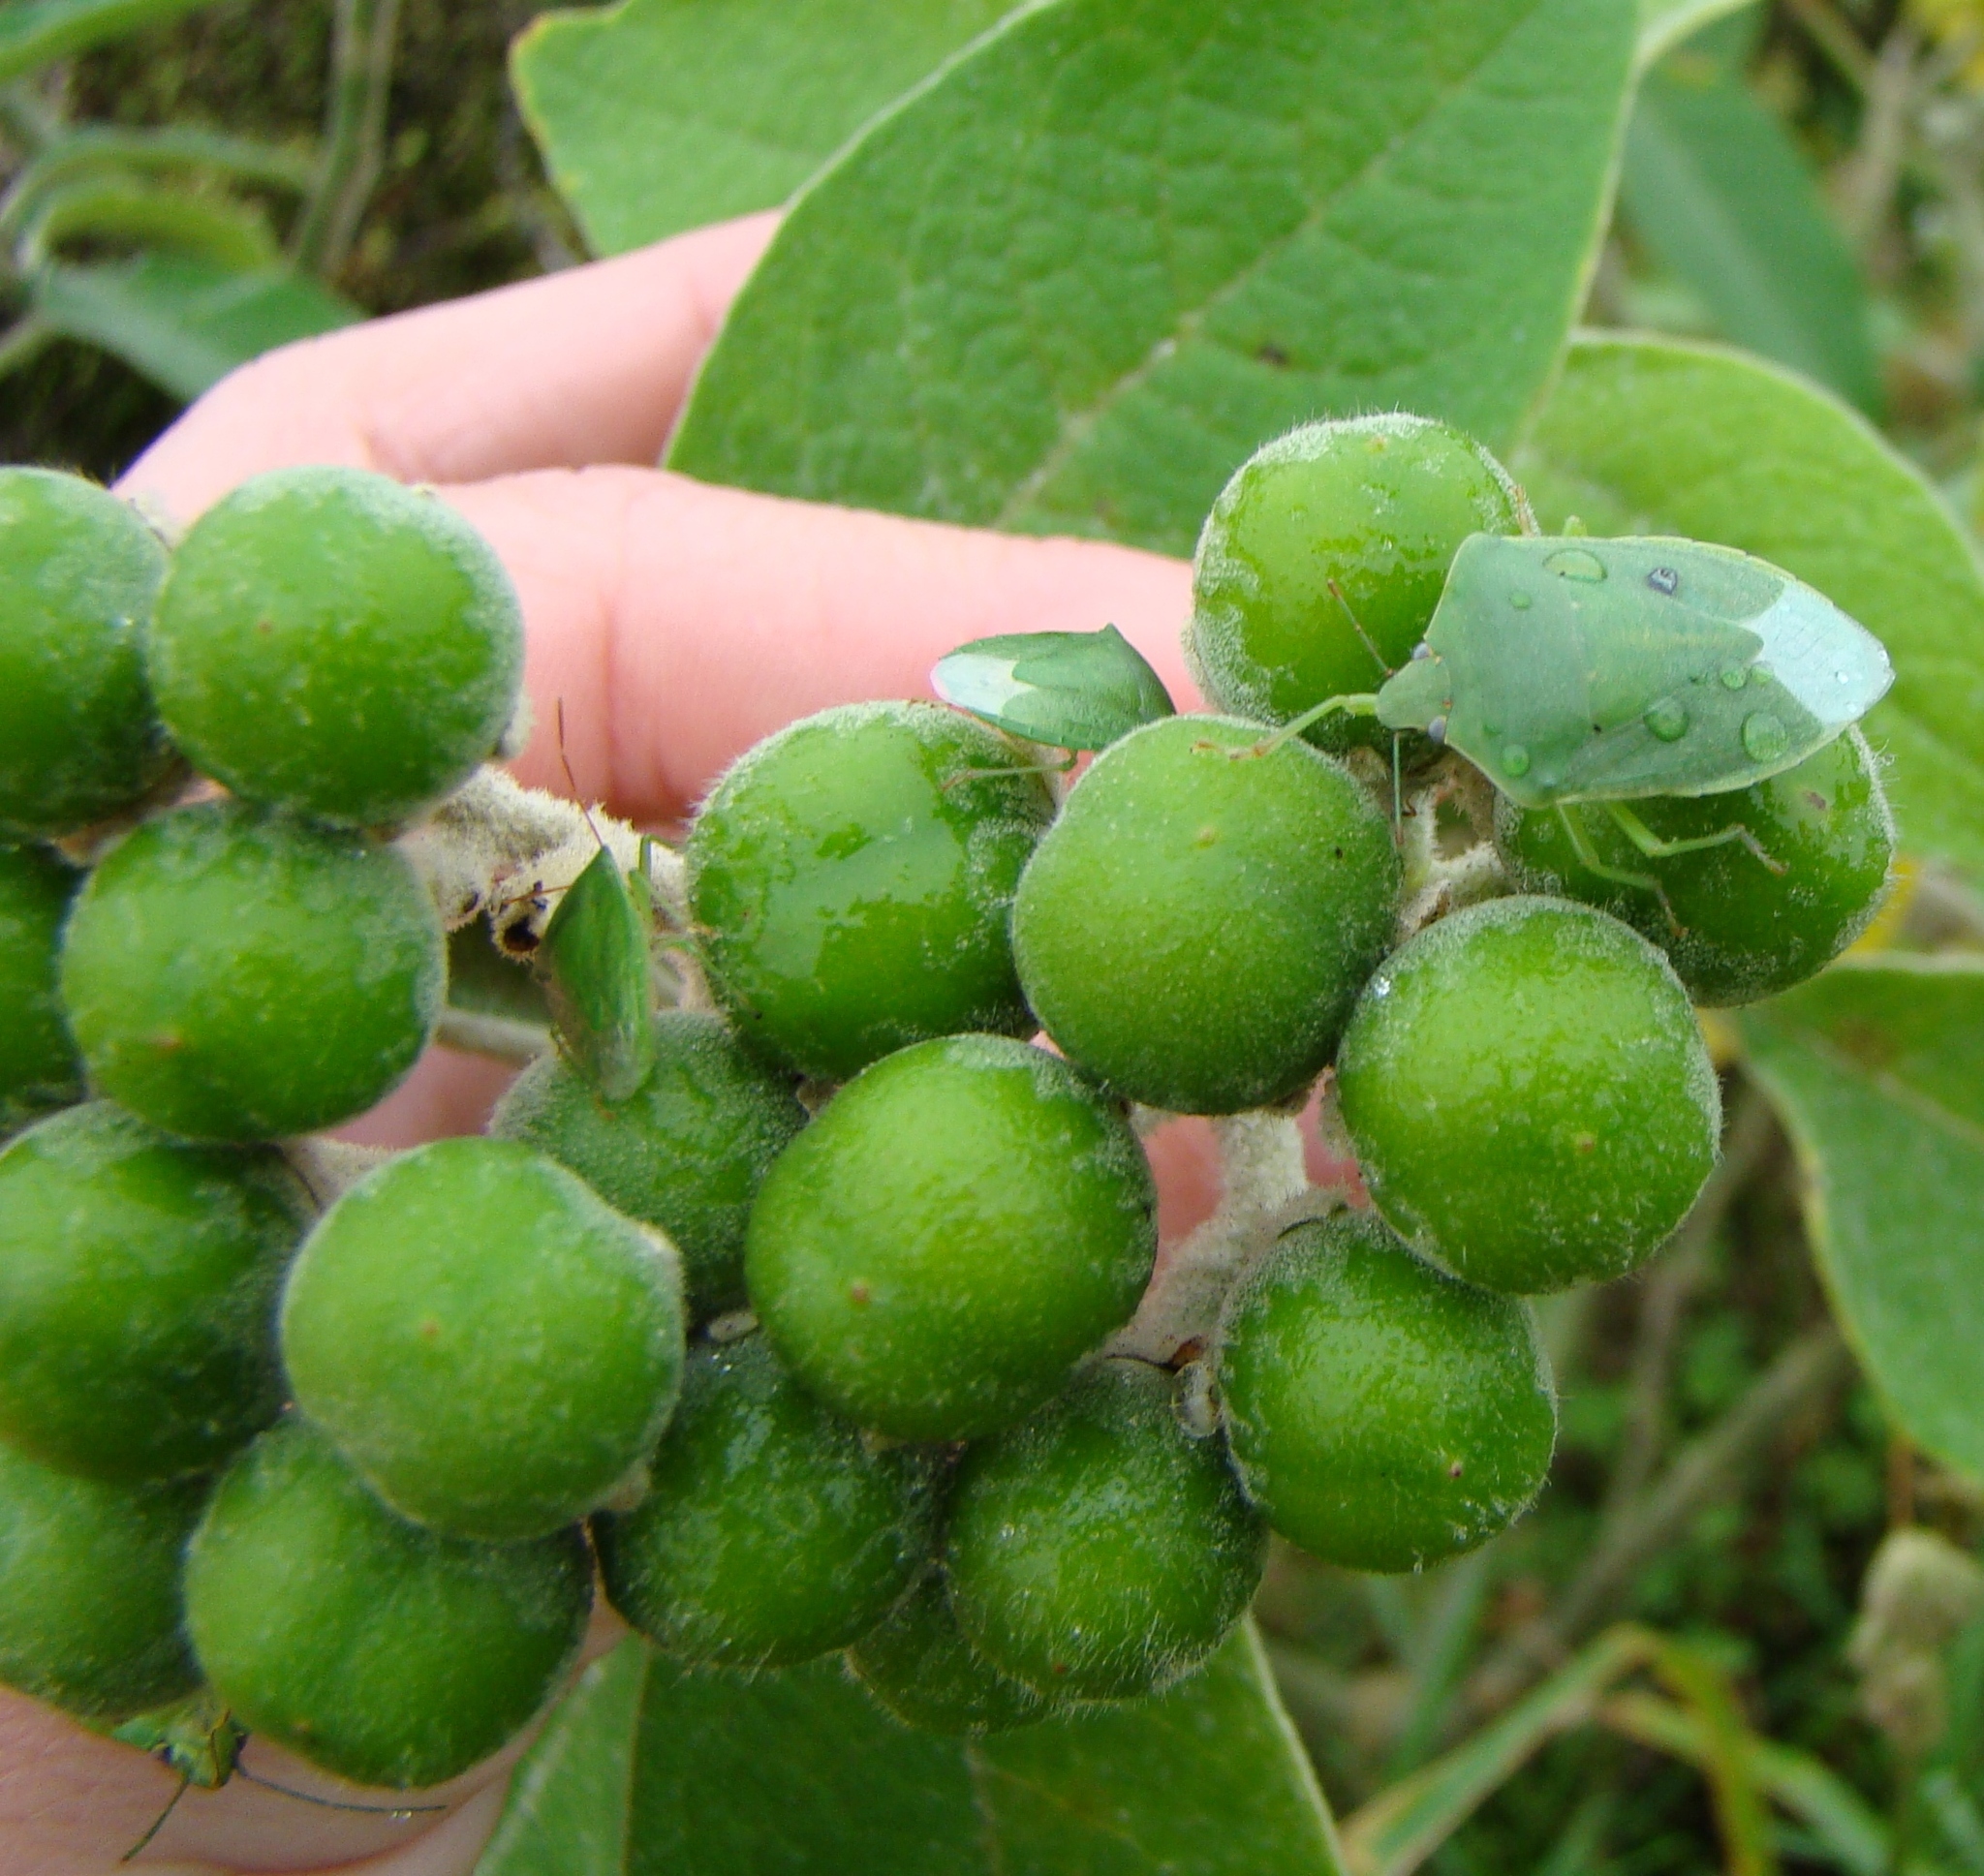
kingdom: Animalia
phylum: Arthropoda
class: Insecta
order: Hemiptera
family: Pentatomidae
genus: Nezara
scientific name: Nezara viridula
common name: Southern green stink bug
